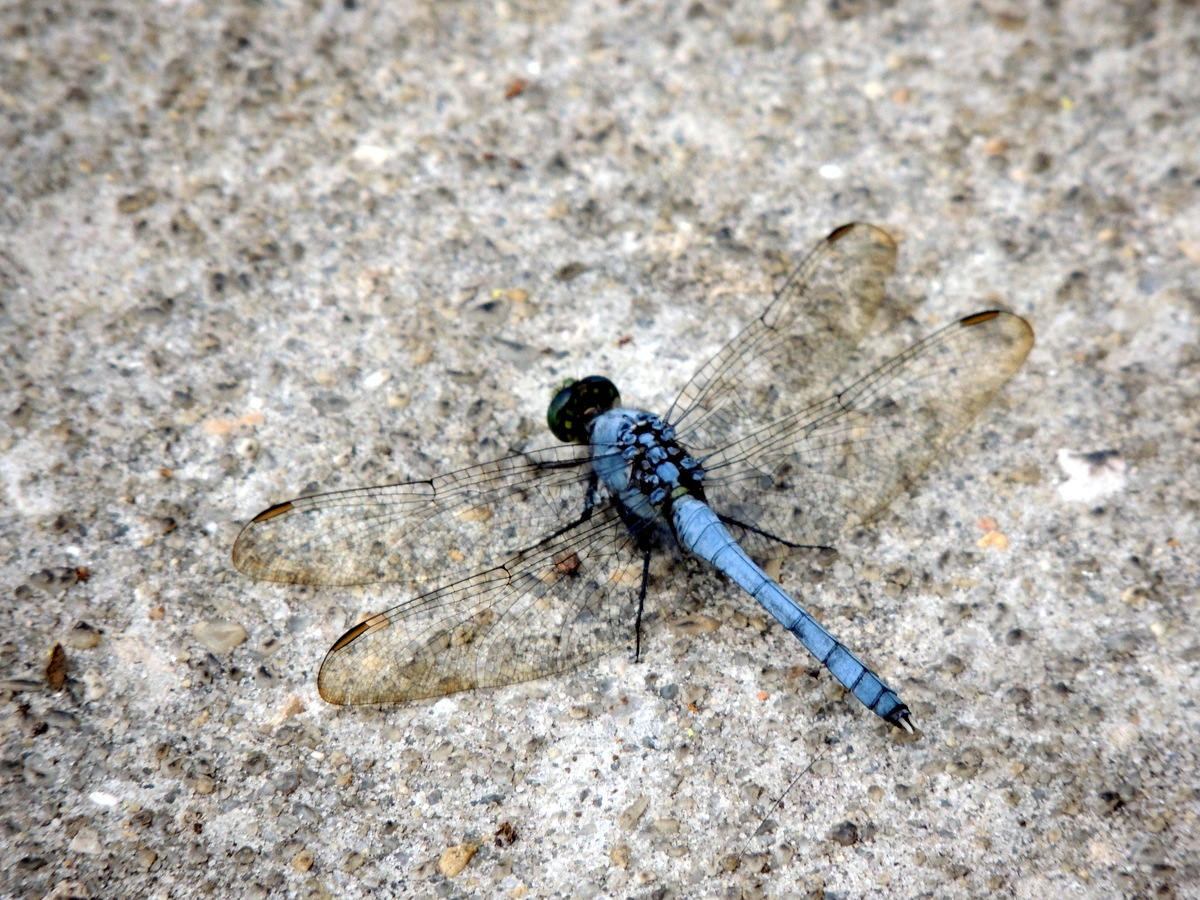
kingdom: Animalia
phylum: Arthropoda
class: Insecta
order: Odonata
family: Libellulidae
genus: Erythemis
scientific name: Erythemis simplicicollis
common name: Eastern pondhawk
